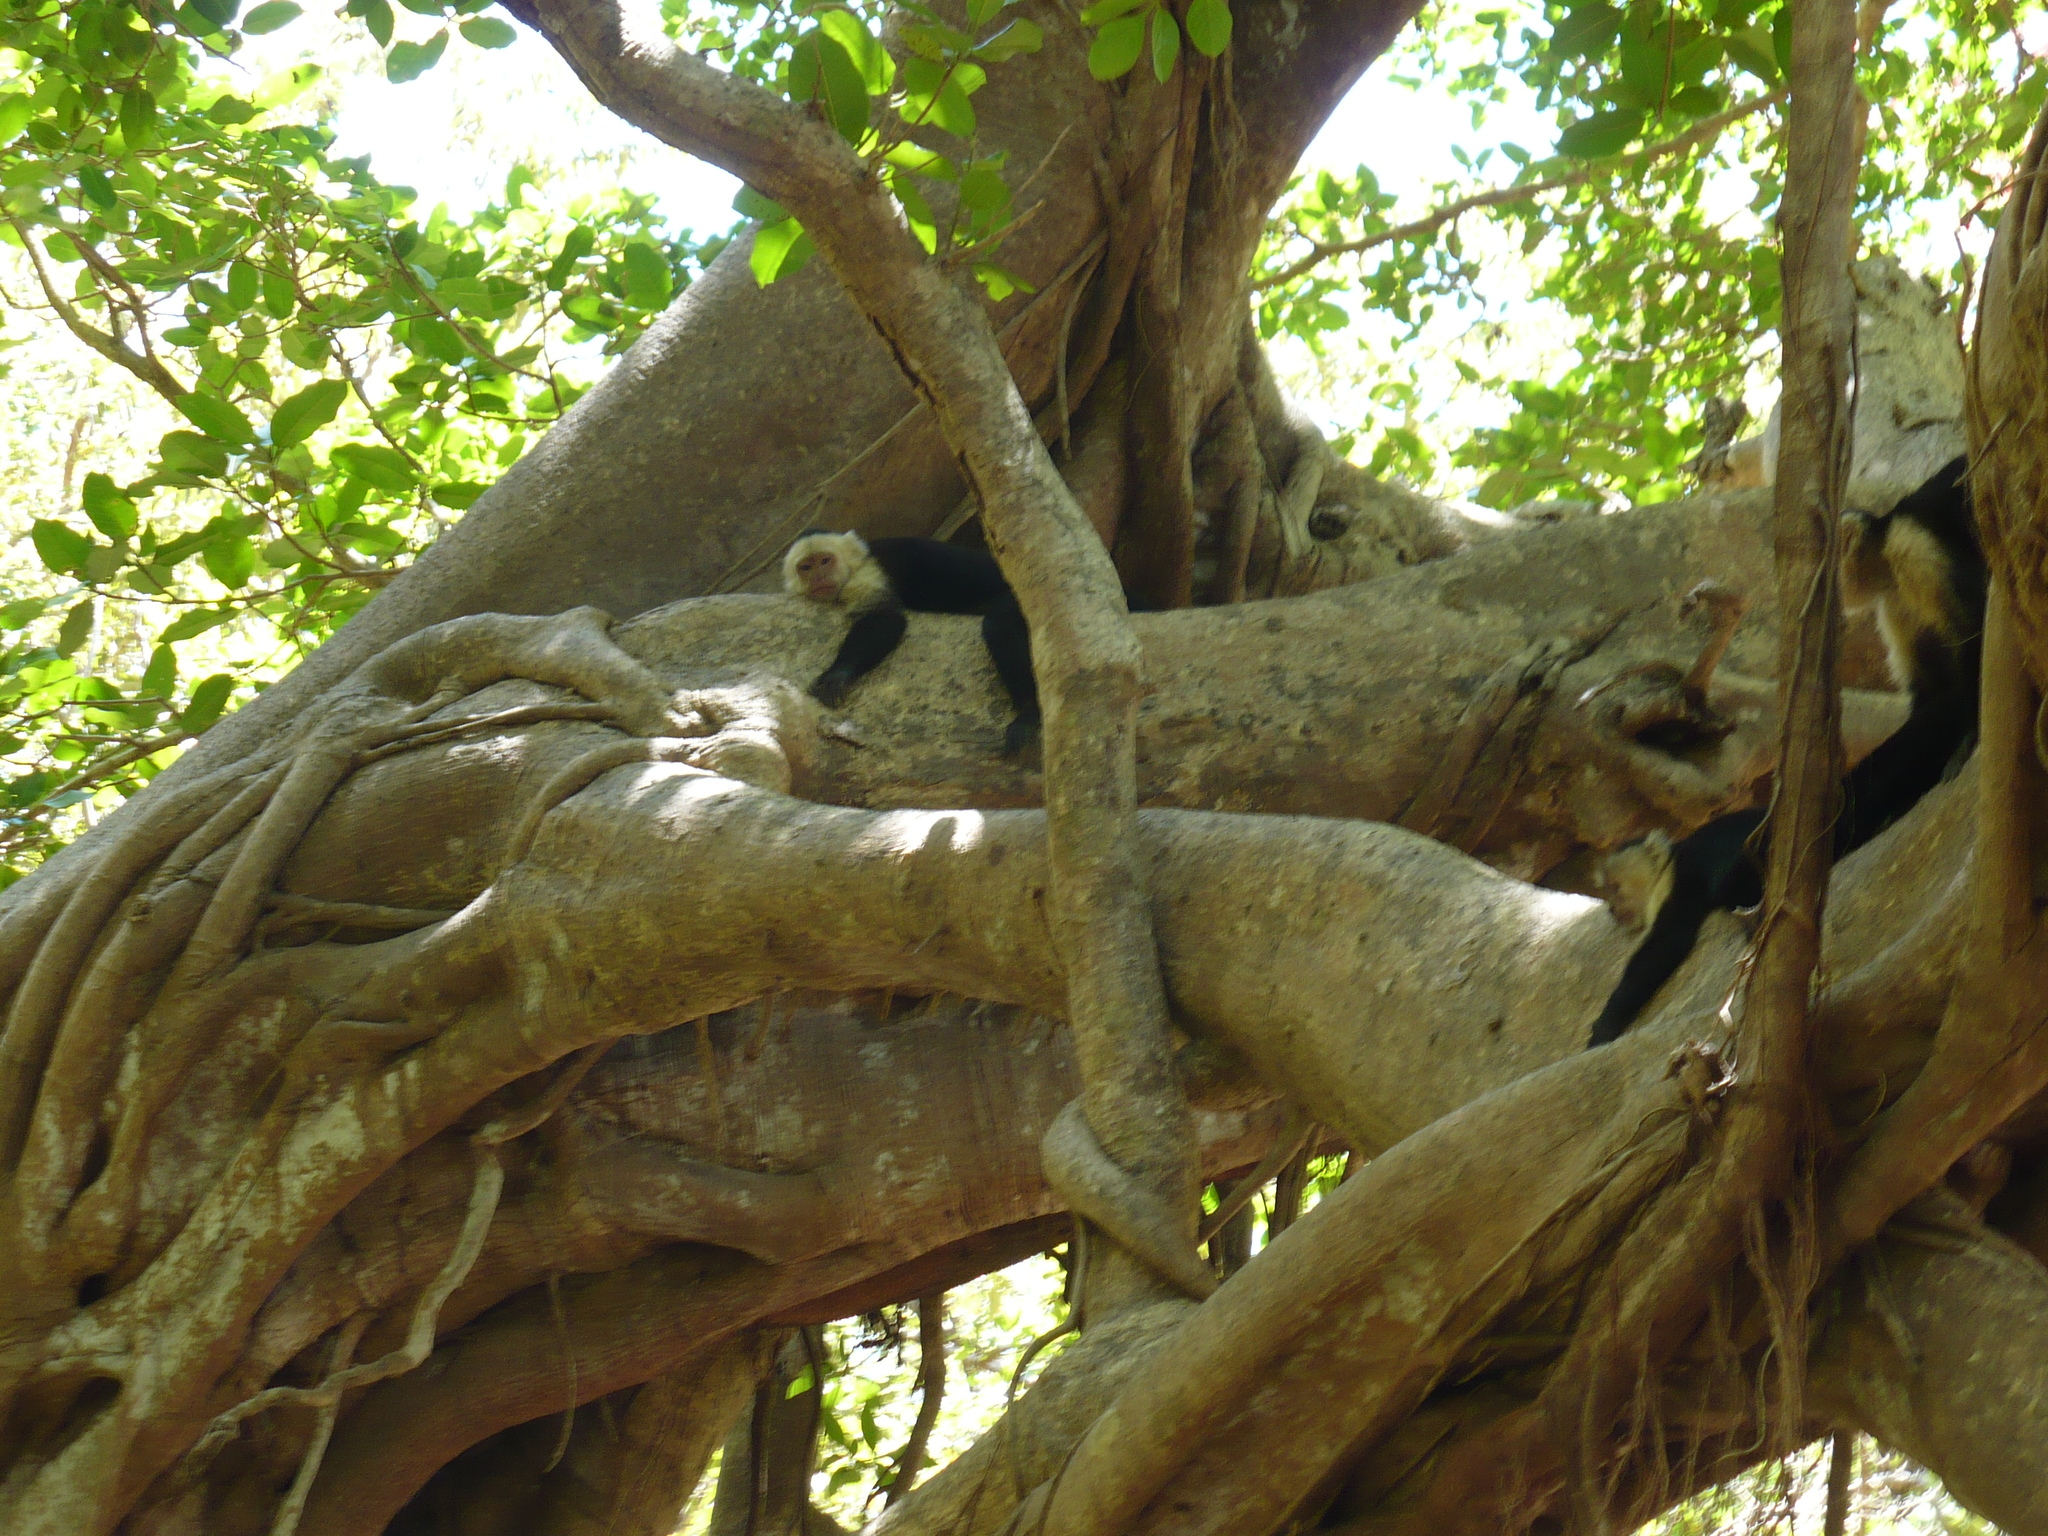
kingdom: Animalia
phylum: Chordata
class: Mammalia
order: Primates
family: Cebidae
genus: Cebus
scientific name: Cebus imitator
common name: Panamanian white-faced capuchin
